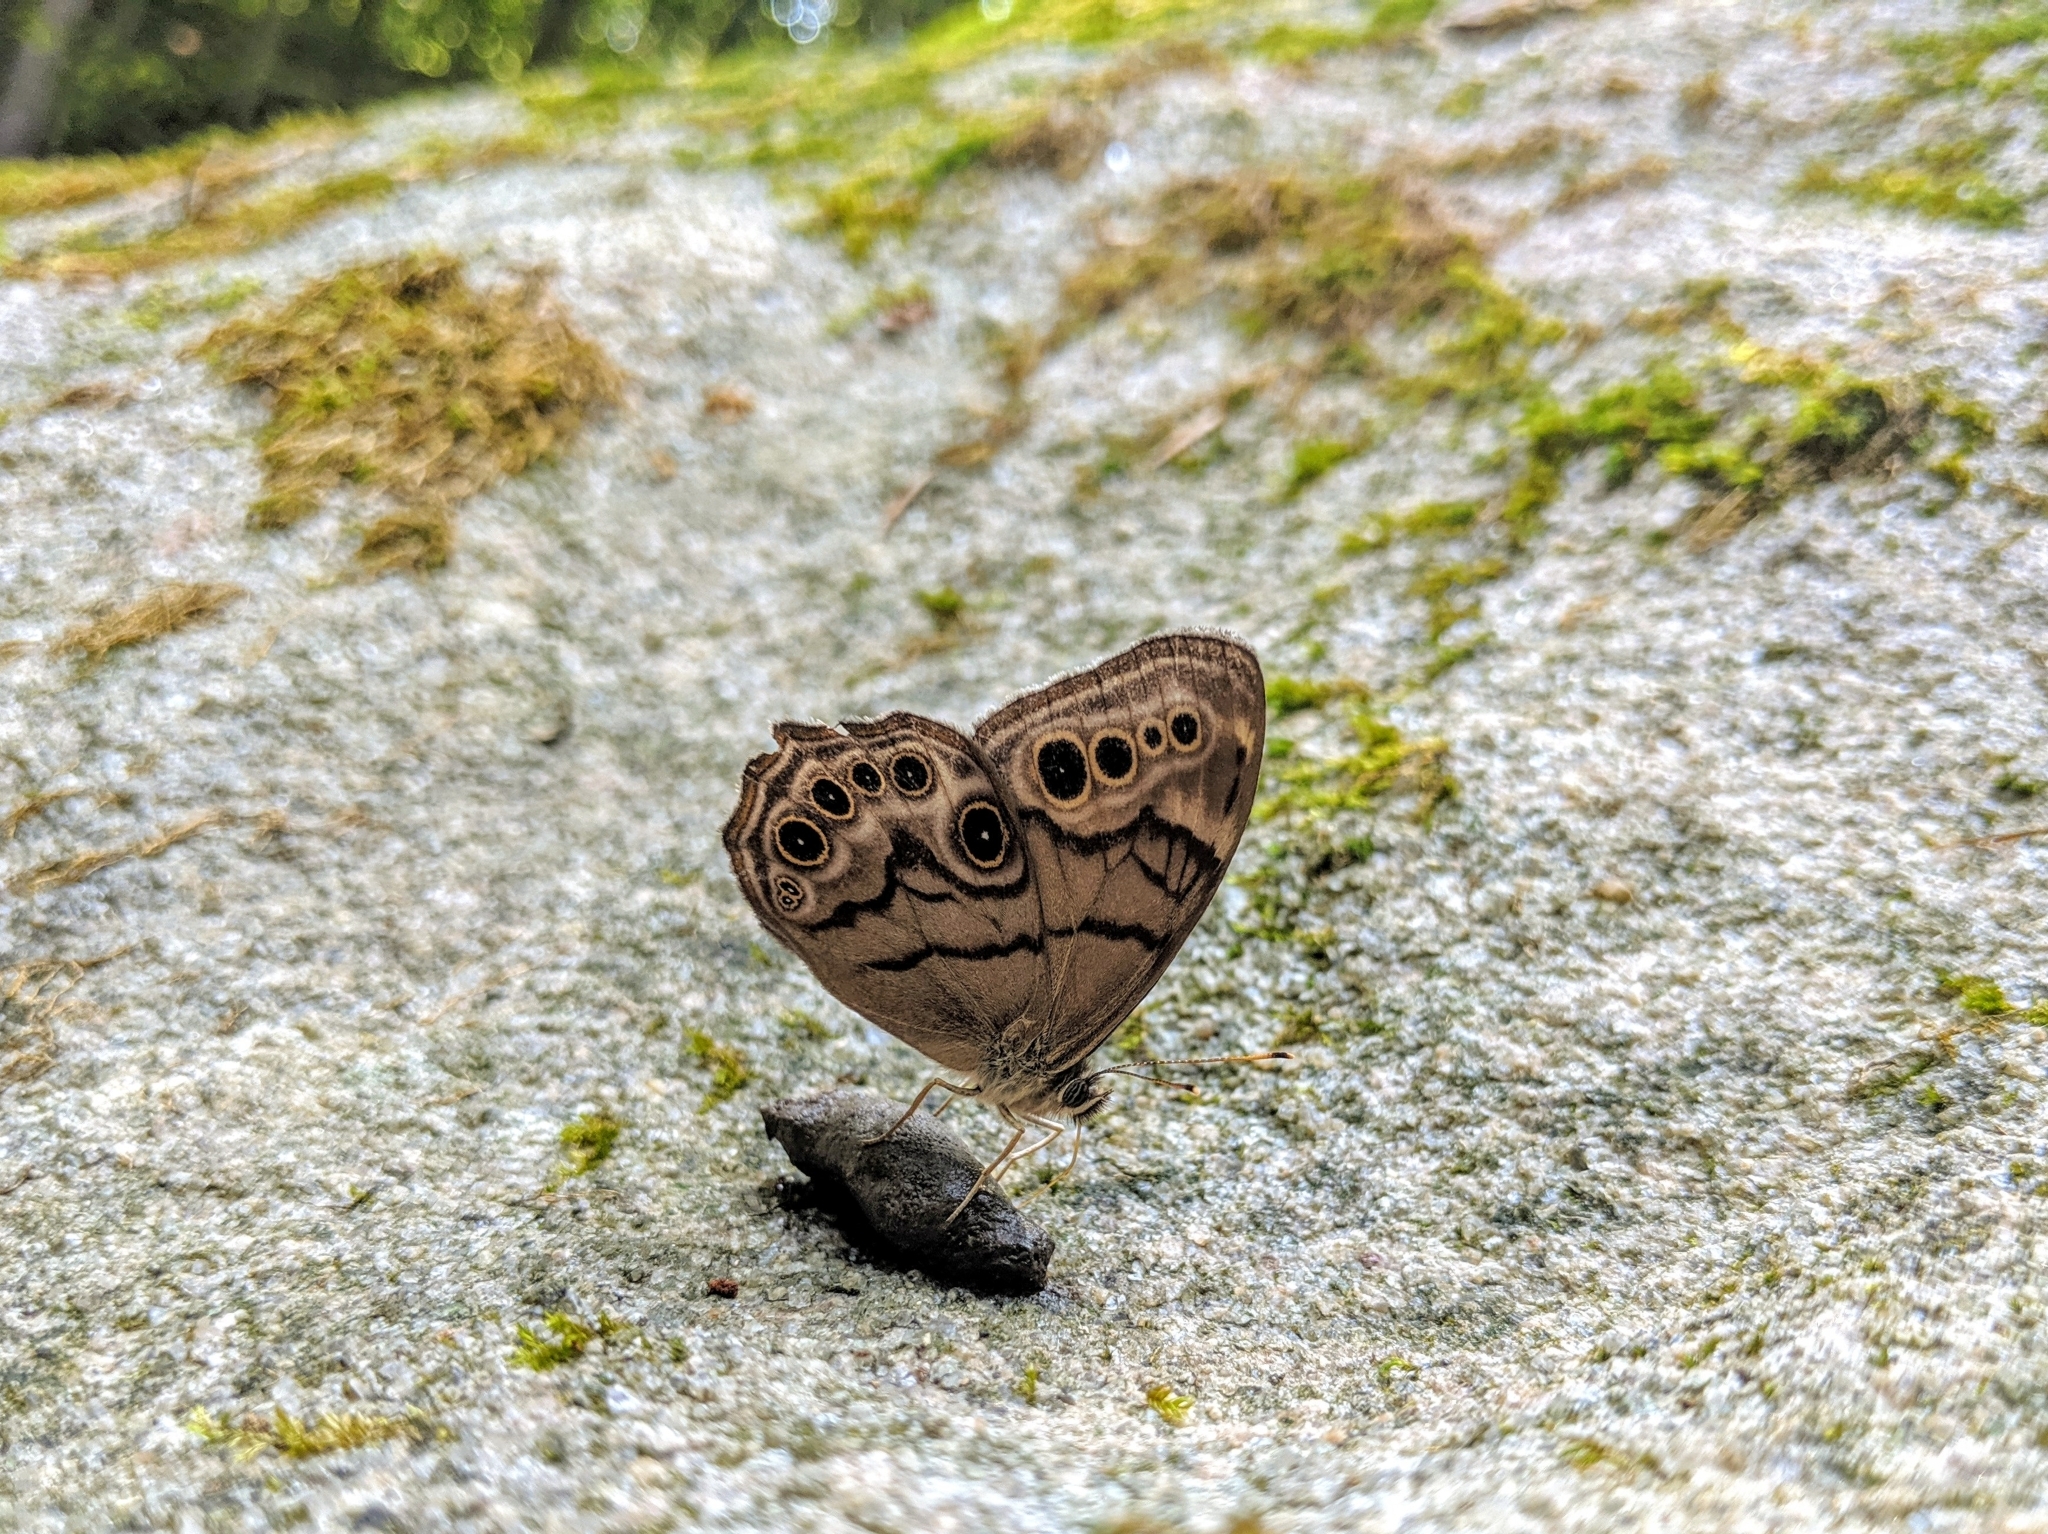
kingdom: Animalia
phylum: Arthropoda
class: Insecta
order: Lepidoptera
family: Nymphalidae
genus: Lethe
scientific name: Lethe anthedon
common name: Northern pearly-eye
